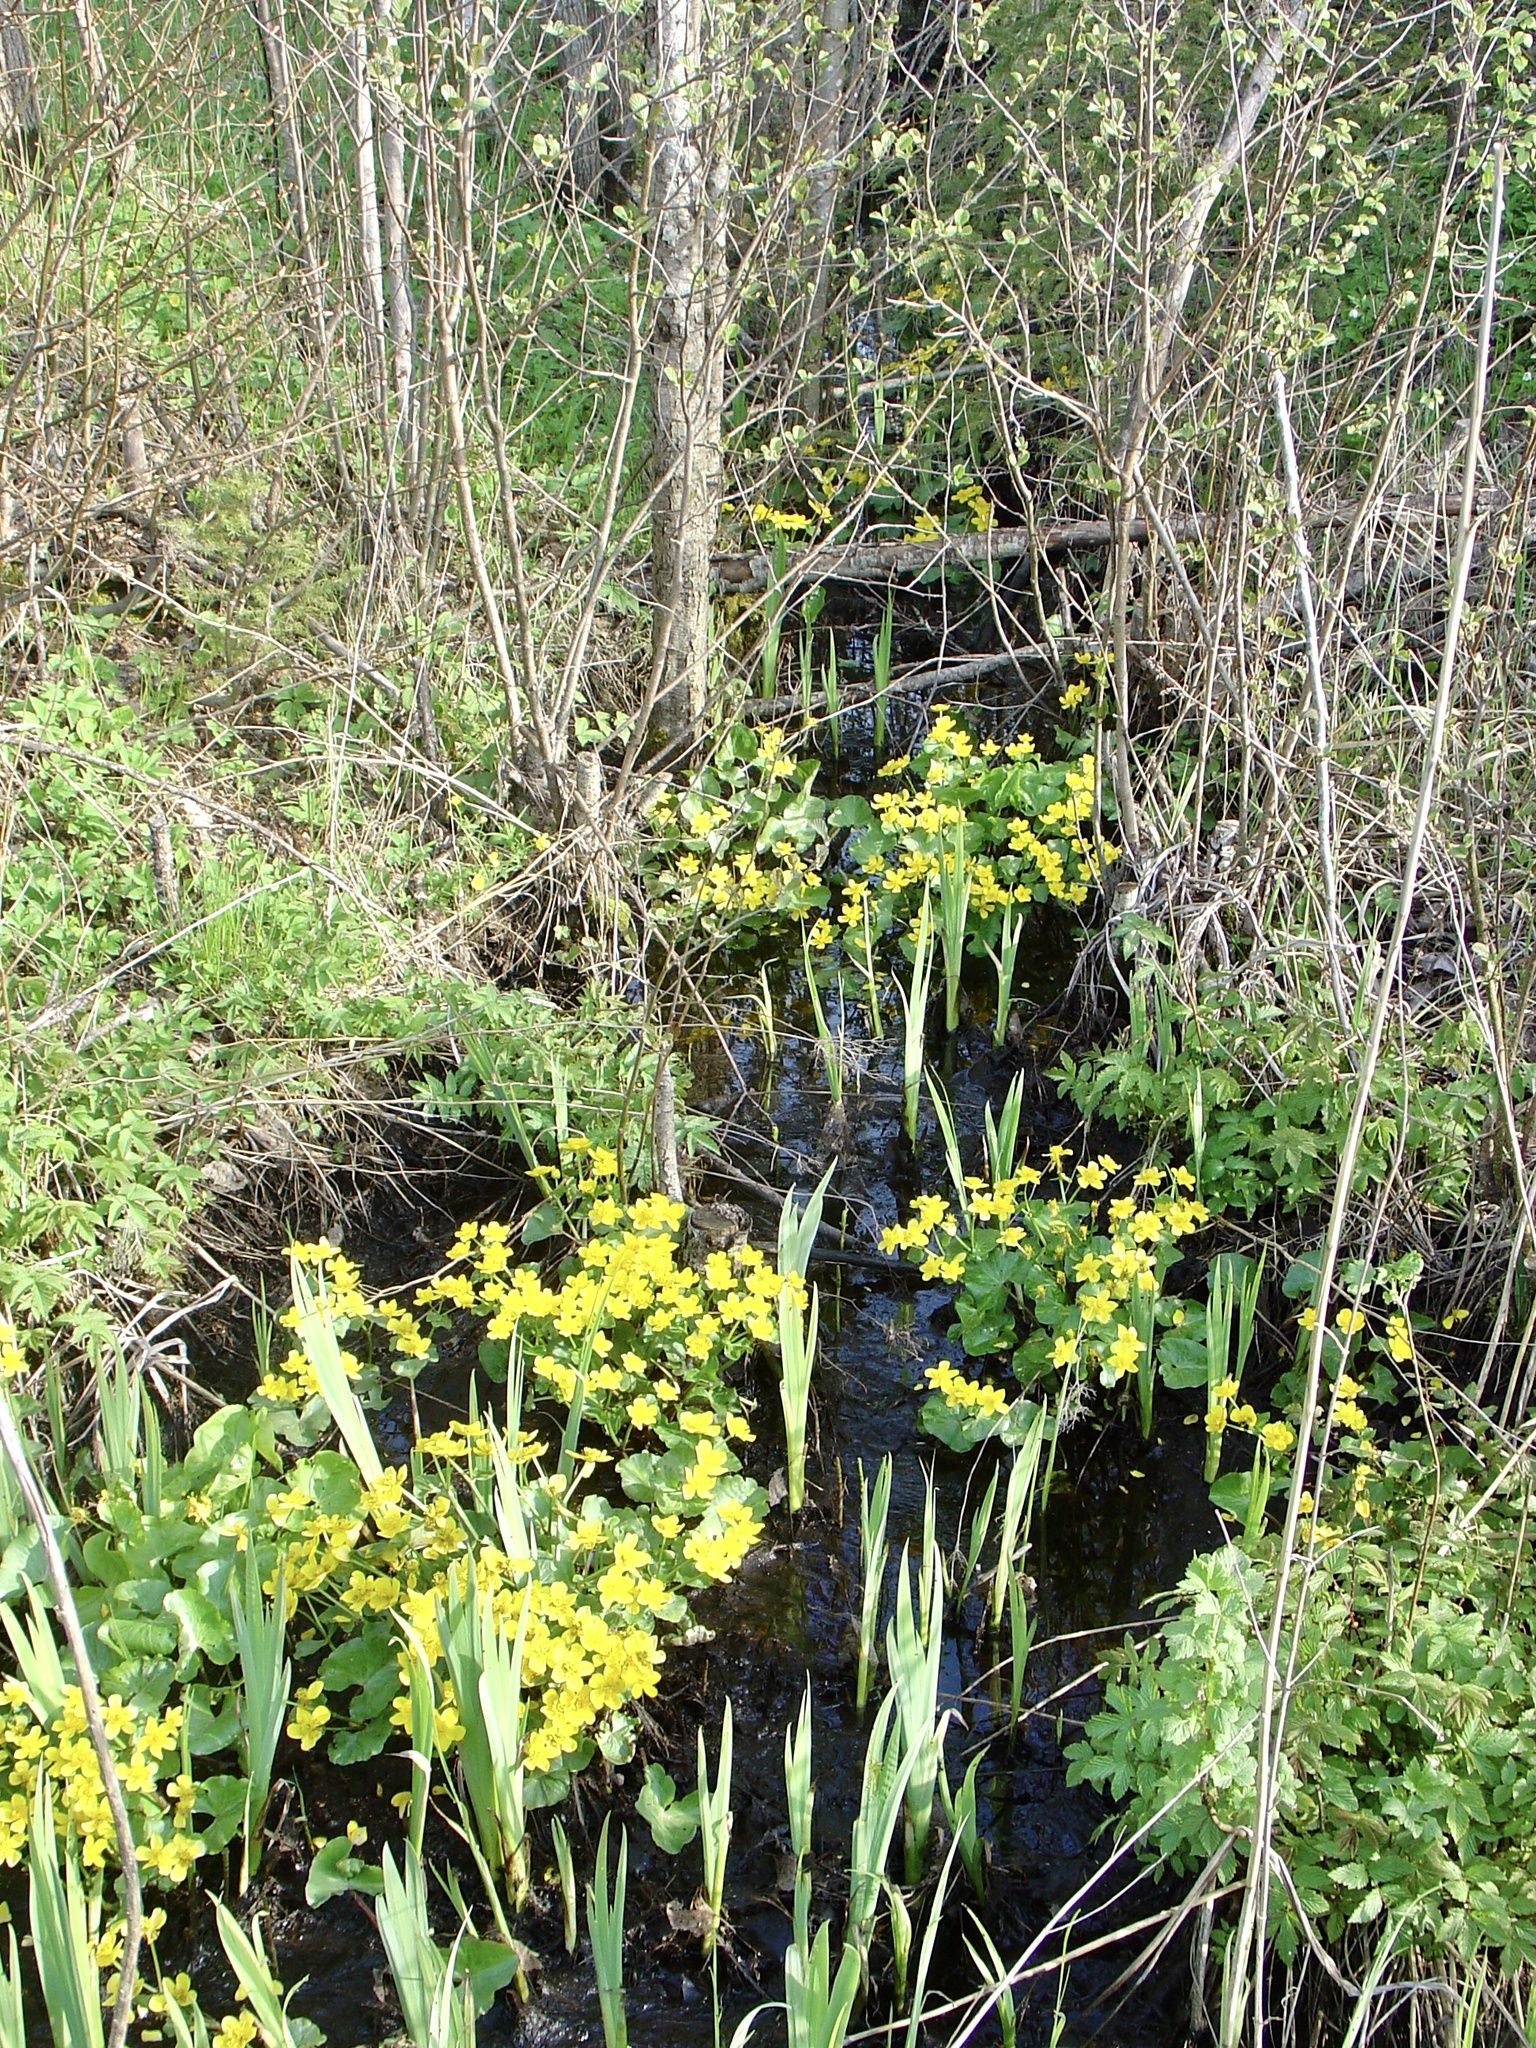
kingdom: Plantae
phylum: Tracheophyta
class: Magnoliopsida
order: Ranunculales
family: Ranunculaceae
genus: Caltha
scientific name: Caltha palustris
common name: Marsh marigold
